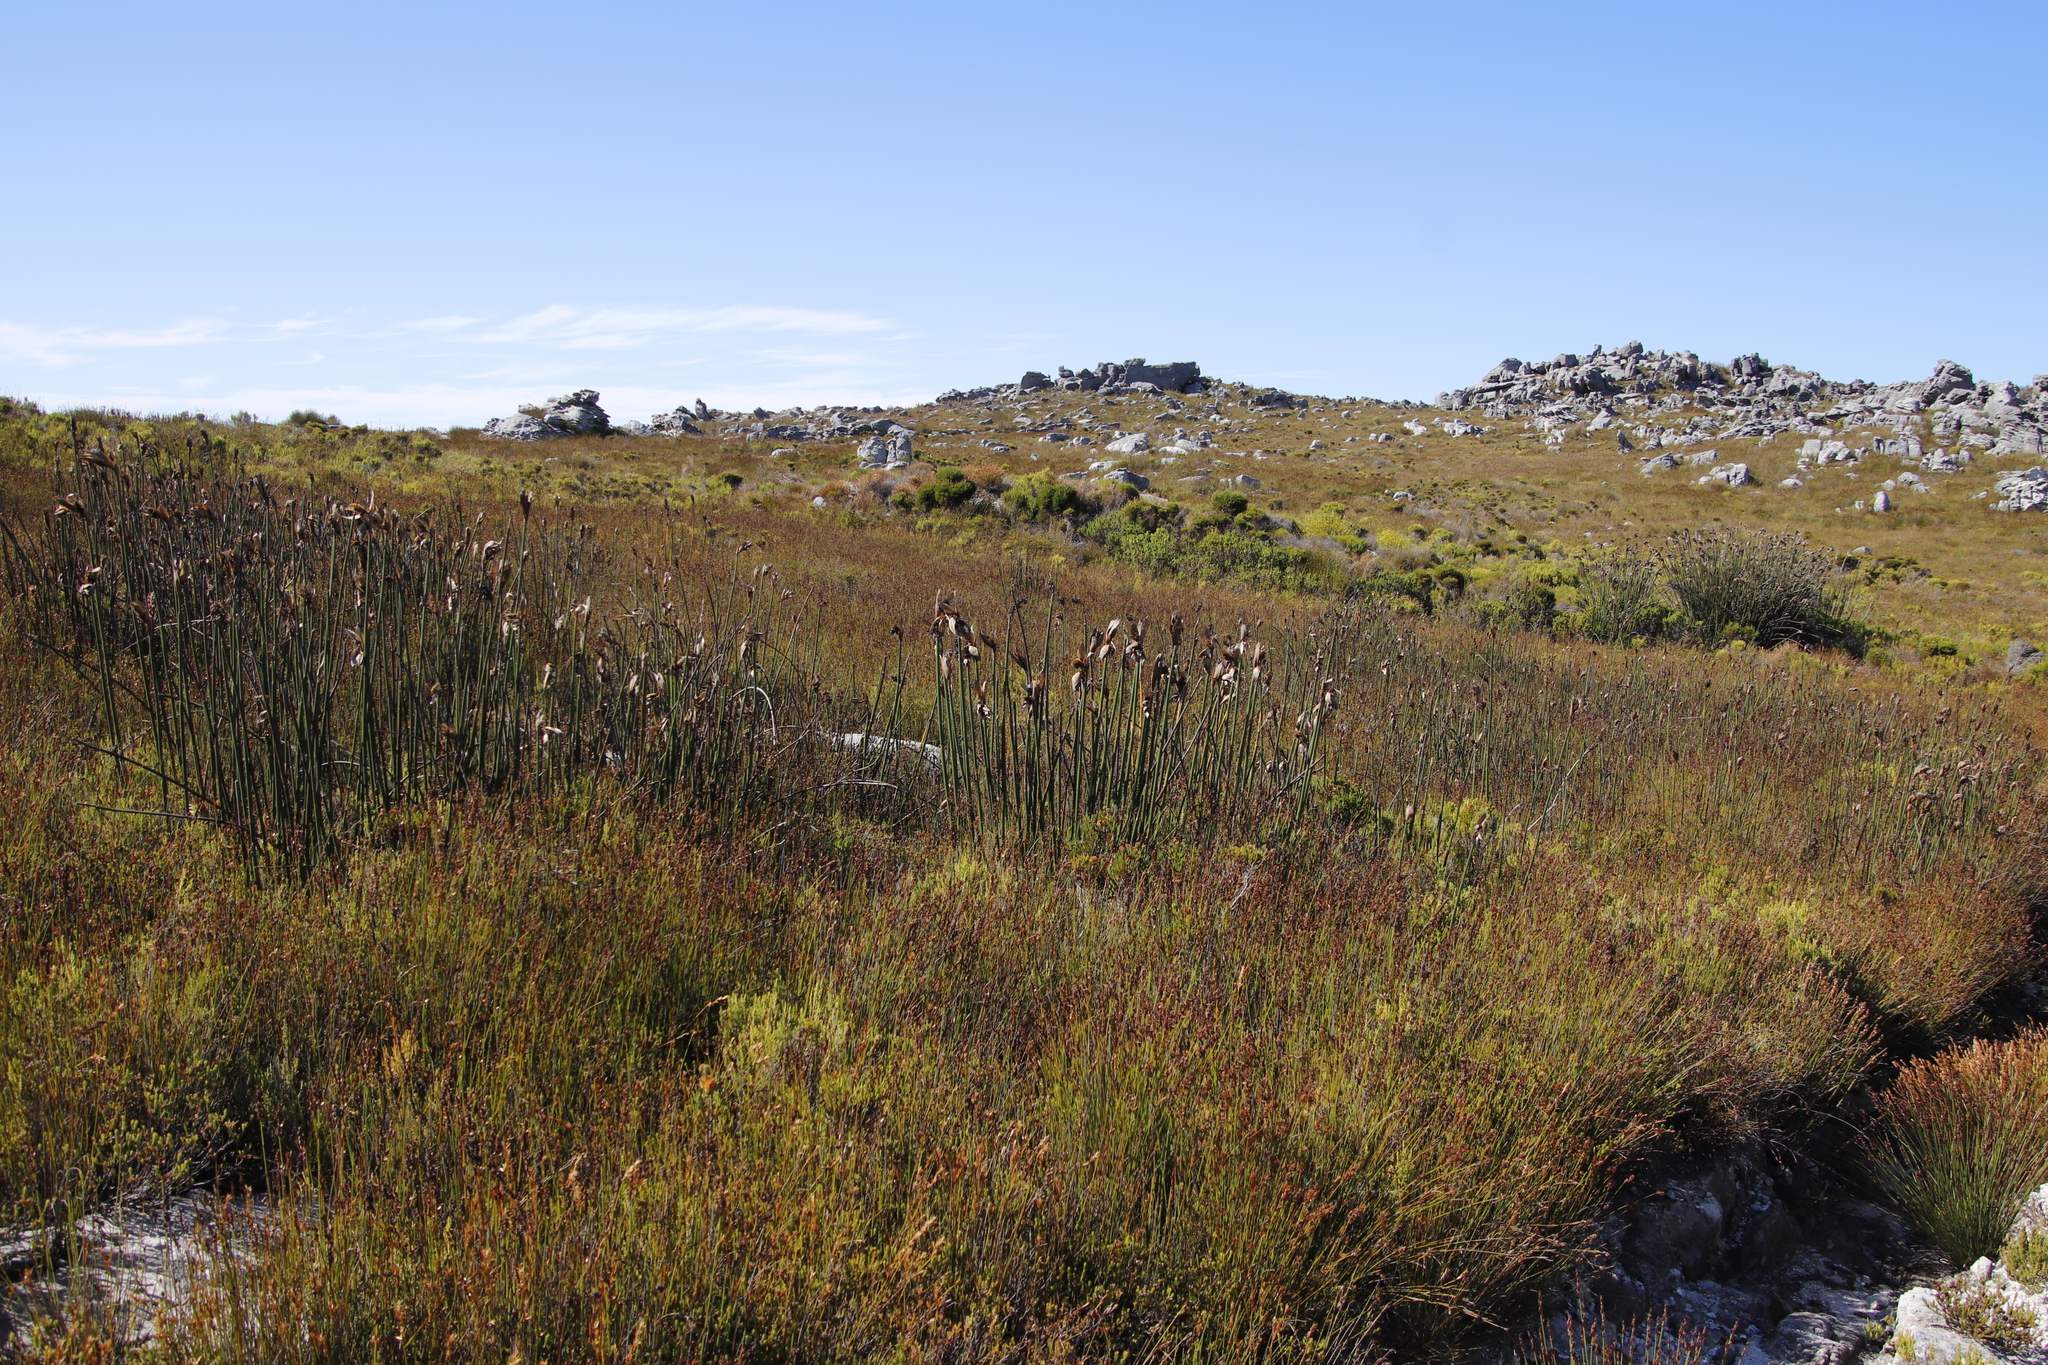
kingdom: Plantae
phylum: Tracheophyta
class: Liliopsida
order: Poales
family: Restionaceae
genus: Elegia
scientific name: Elegia mucronata
